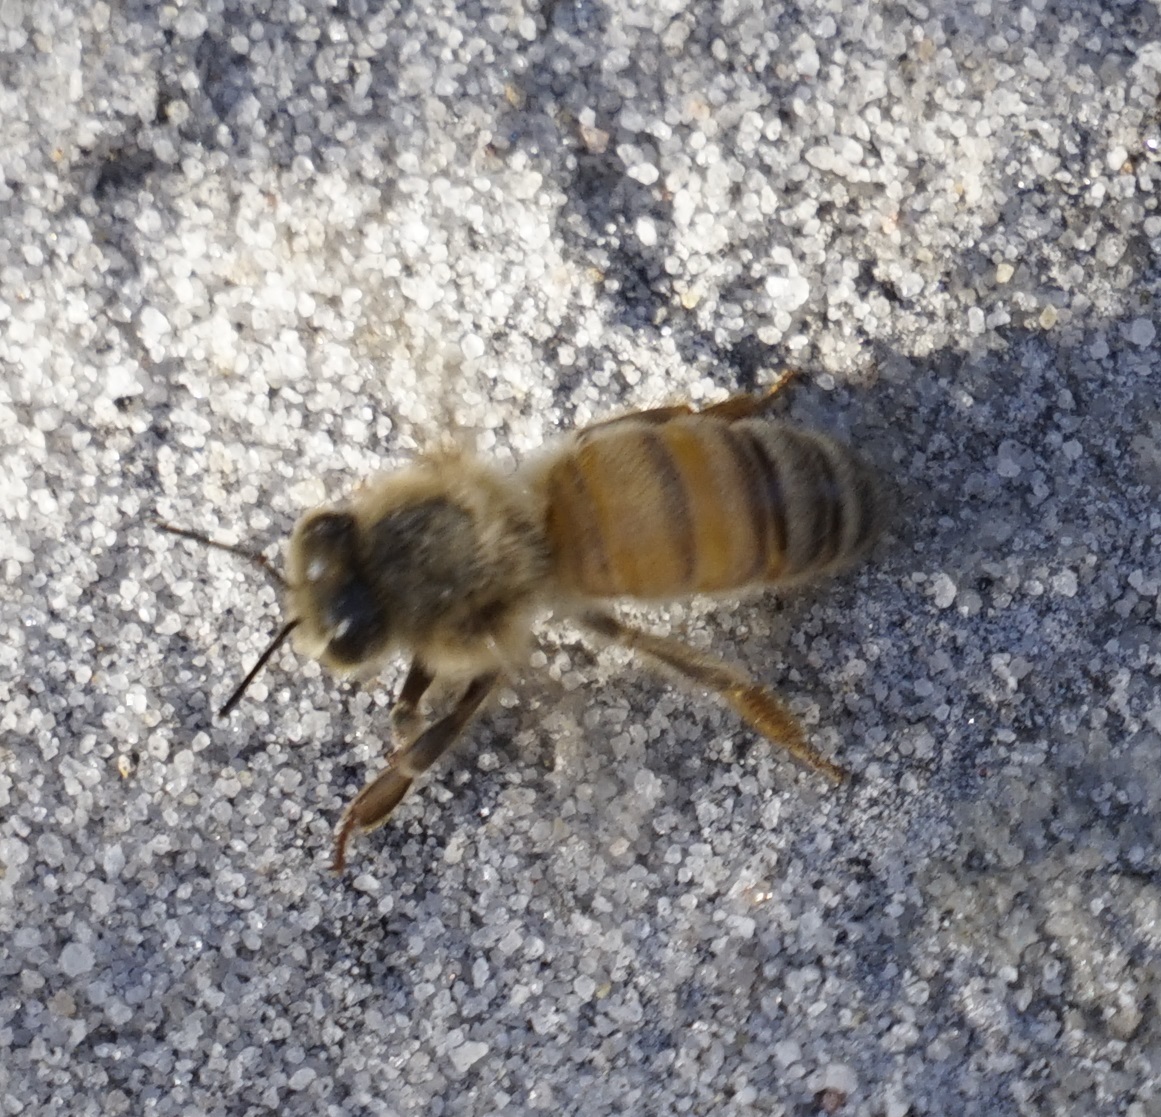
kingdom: Animalia
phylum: Arthropoda
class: Insecta
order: Hymenoptera
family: Apidae
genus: Apis
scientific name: Apis mellifera
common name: Honey bee
